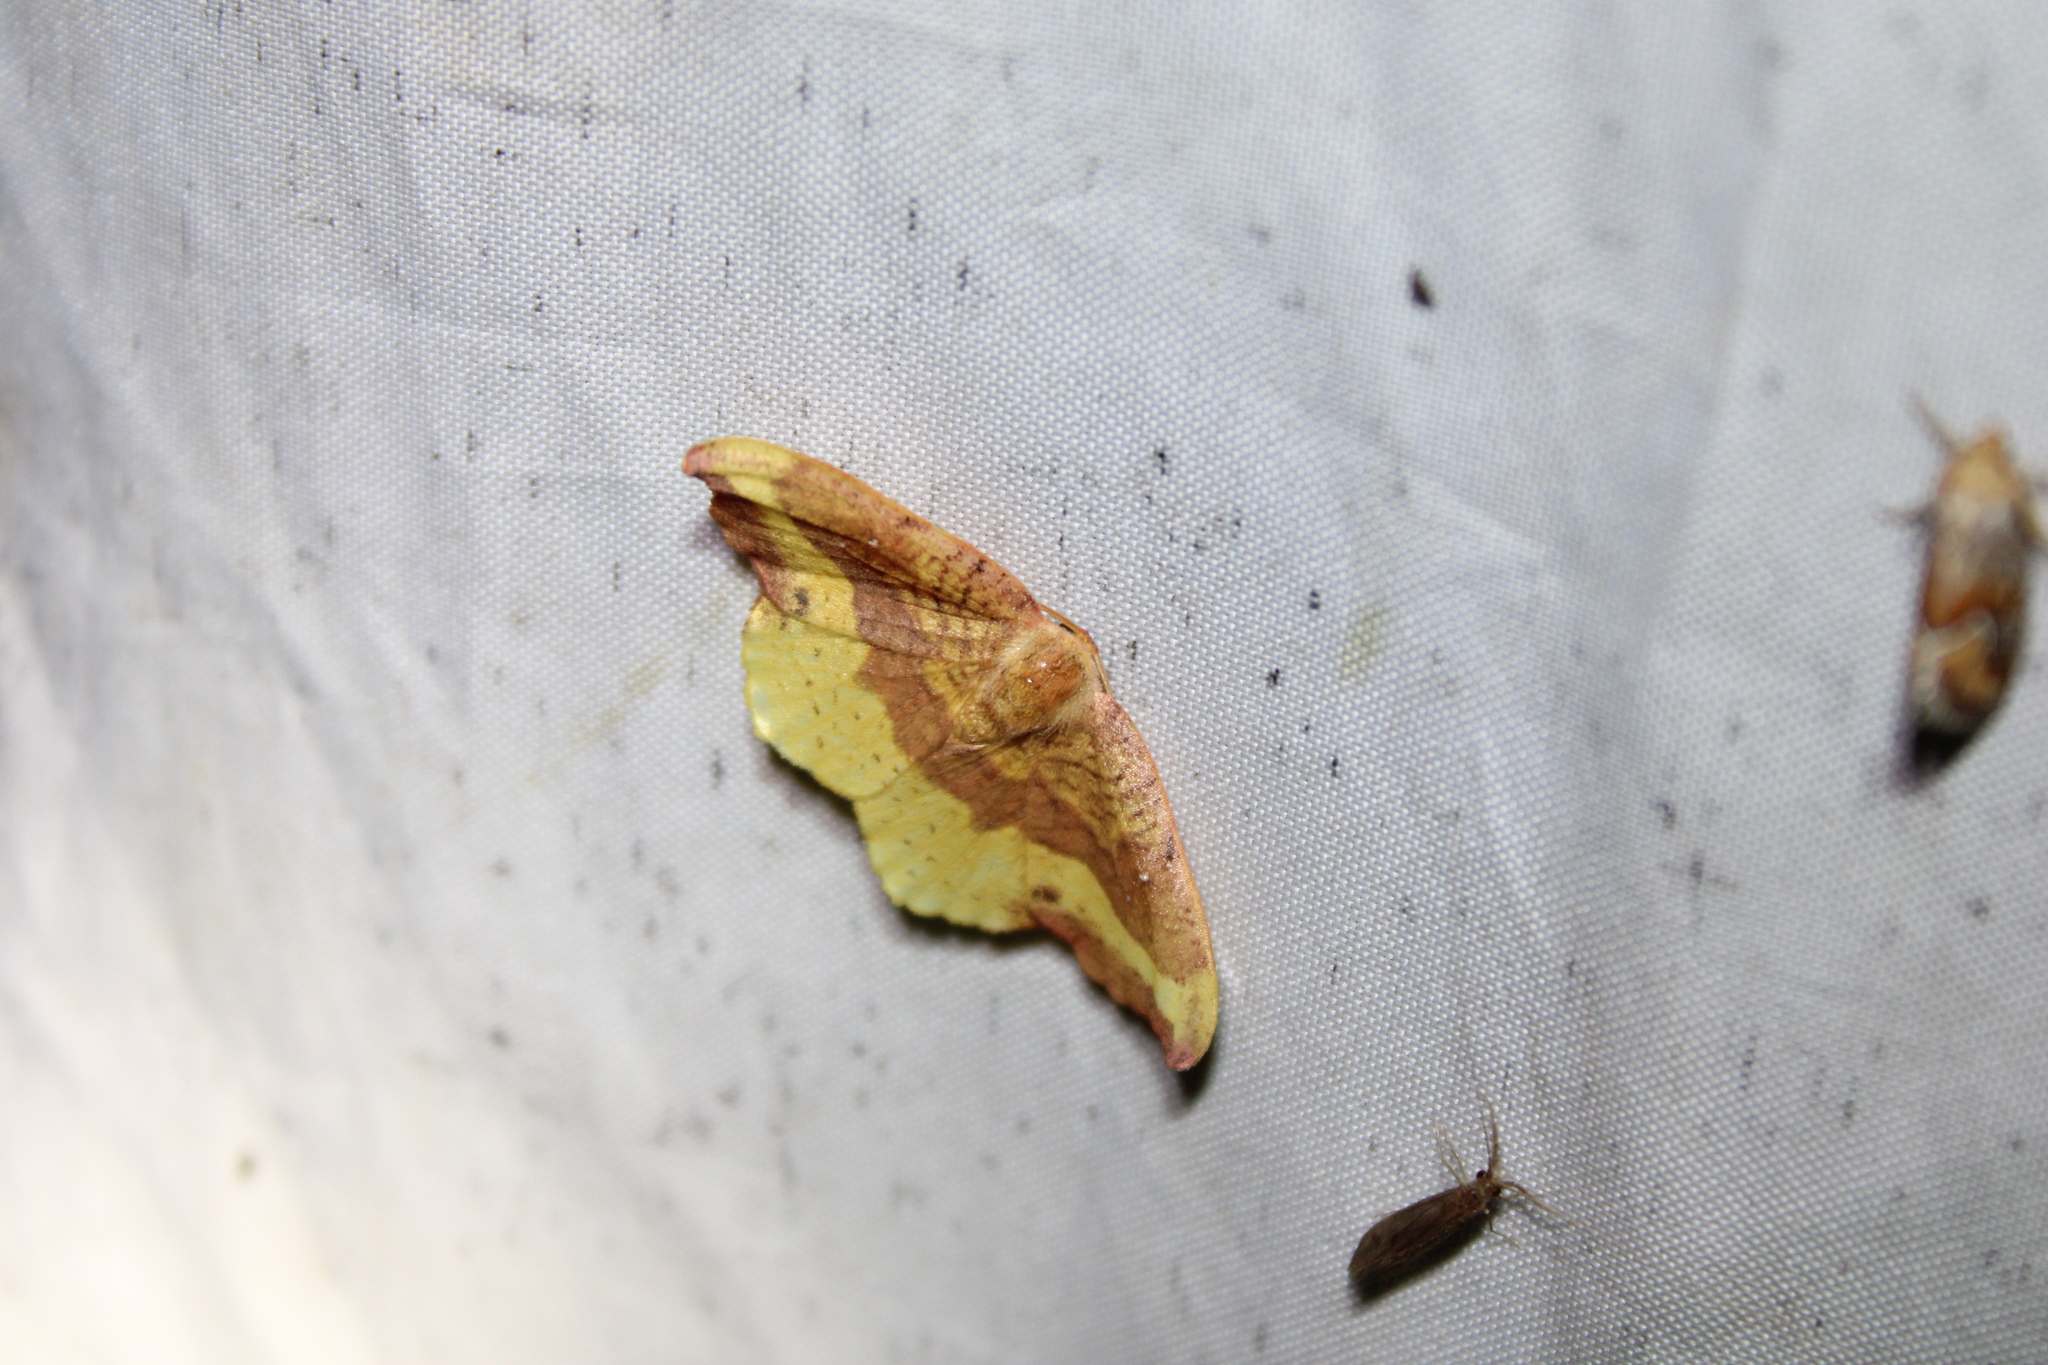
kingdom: Animalia
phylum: Arthropoda
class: Insecta
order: Lepidoptera
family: Drepanidae
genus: Oreta
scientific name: Oreta rosea
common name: Rose hooktip
